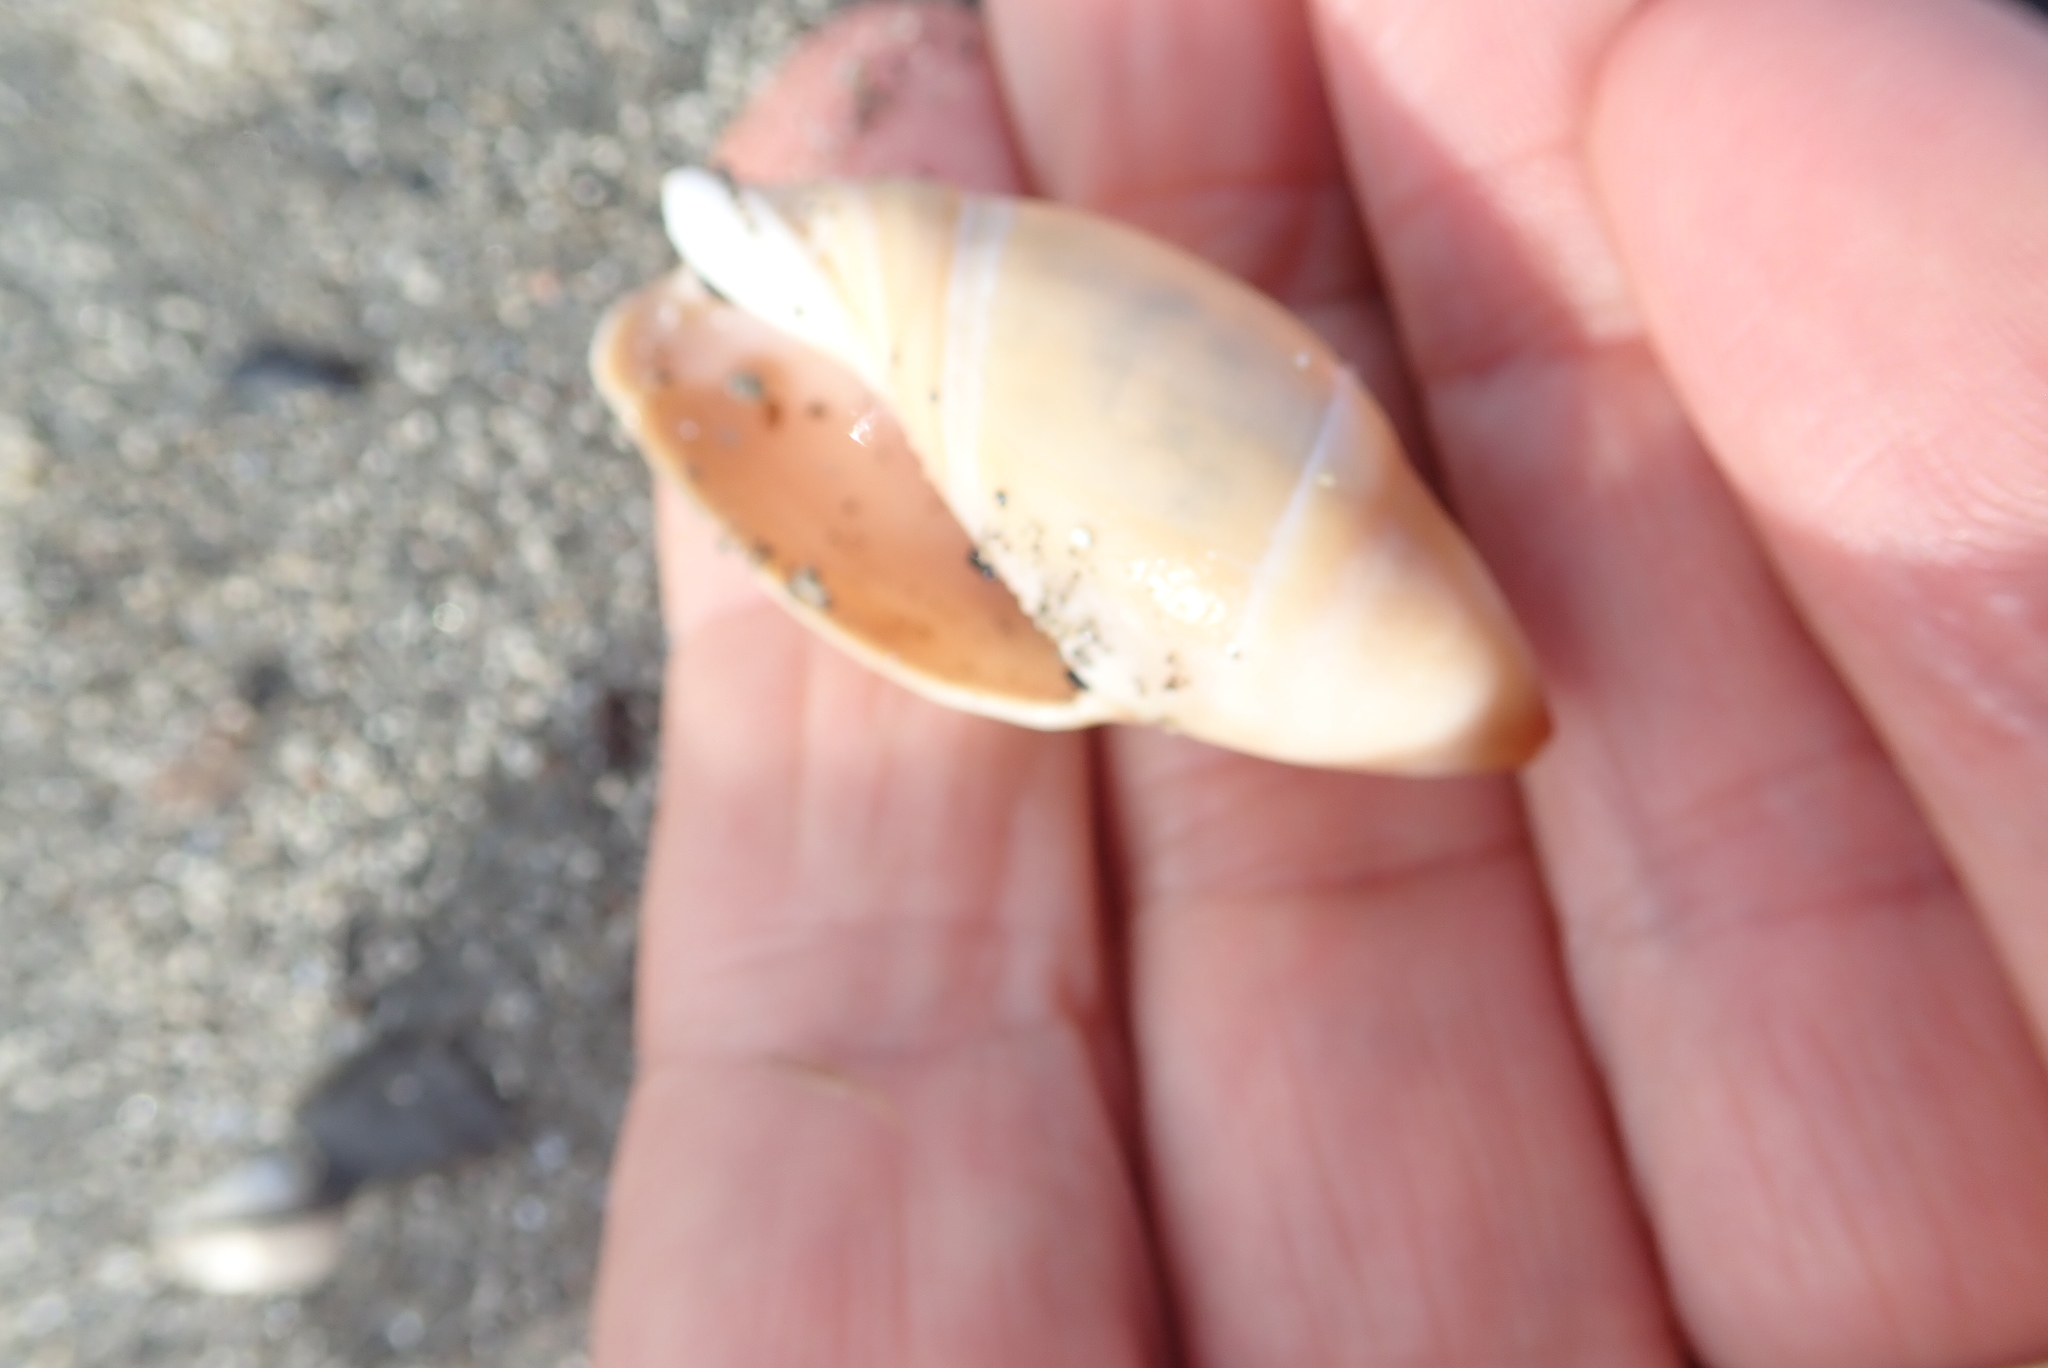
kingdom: Animalia
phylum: Mollusca
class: Gastropoda
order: Neogastropoda
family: Ancillariidae
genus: Amalda
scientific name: Amalda mucronata
